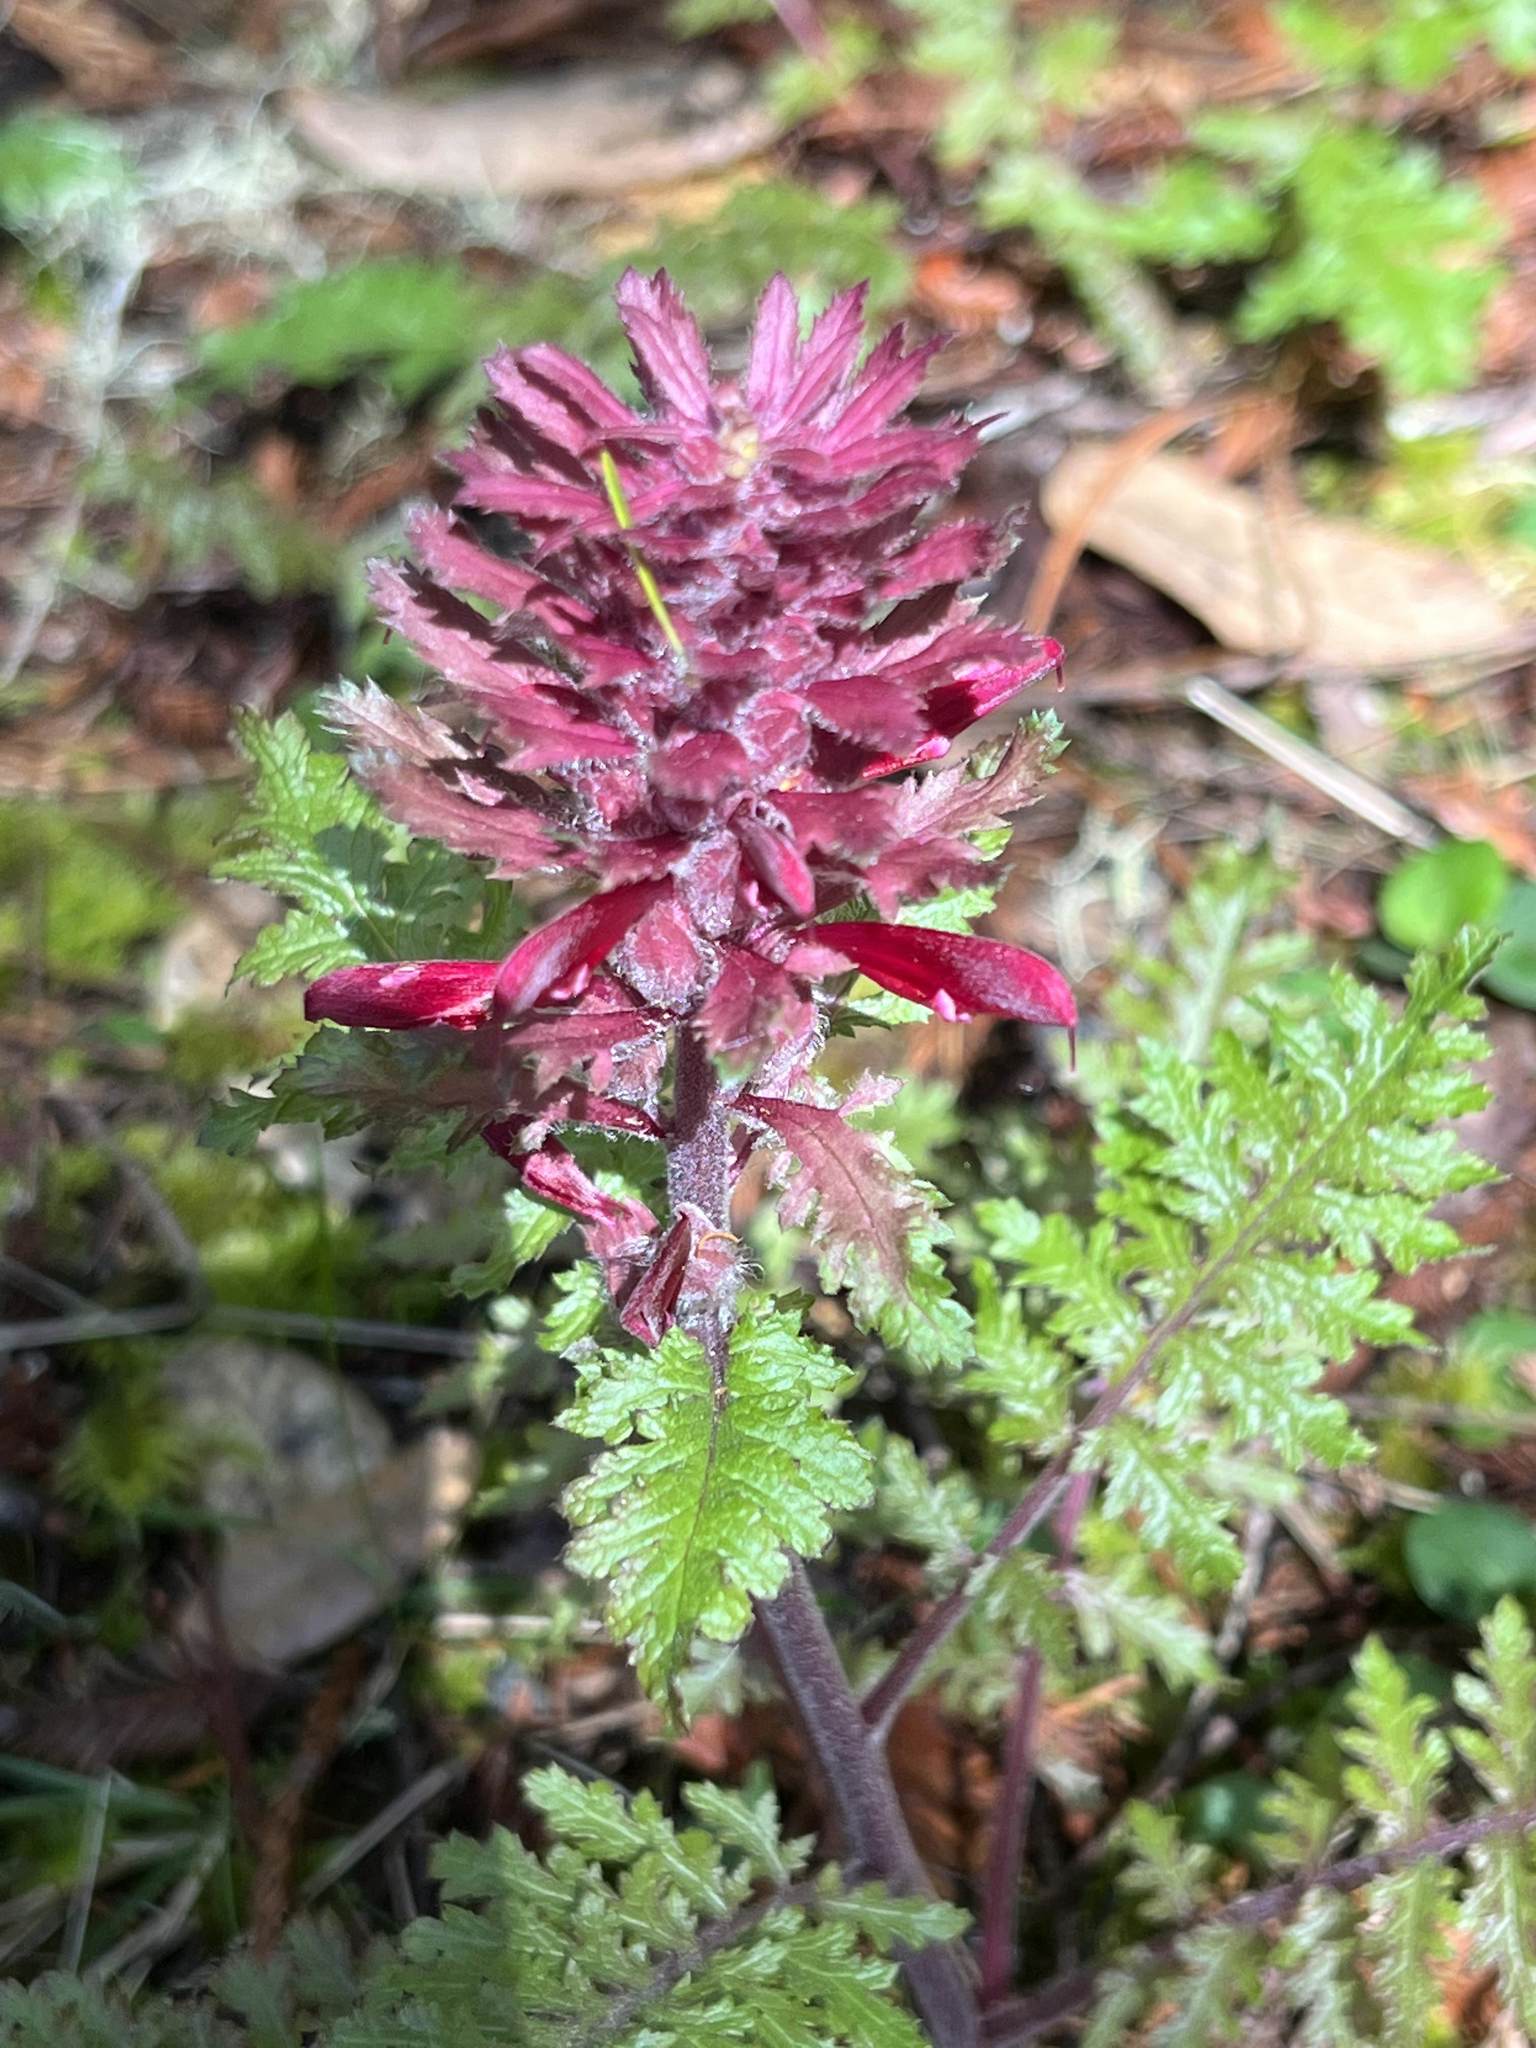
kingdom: Plantae
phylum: Tracheophyta
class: Magnoliopsida
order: Lamiales
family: Orobanchaceae
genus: Pedicularis
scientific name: Pedicularis densiflora
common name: Indian warrior
